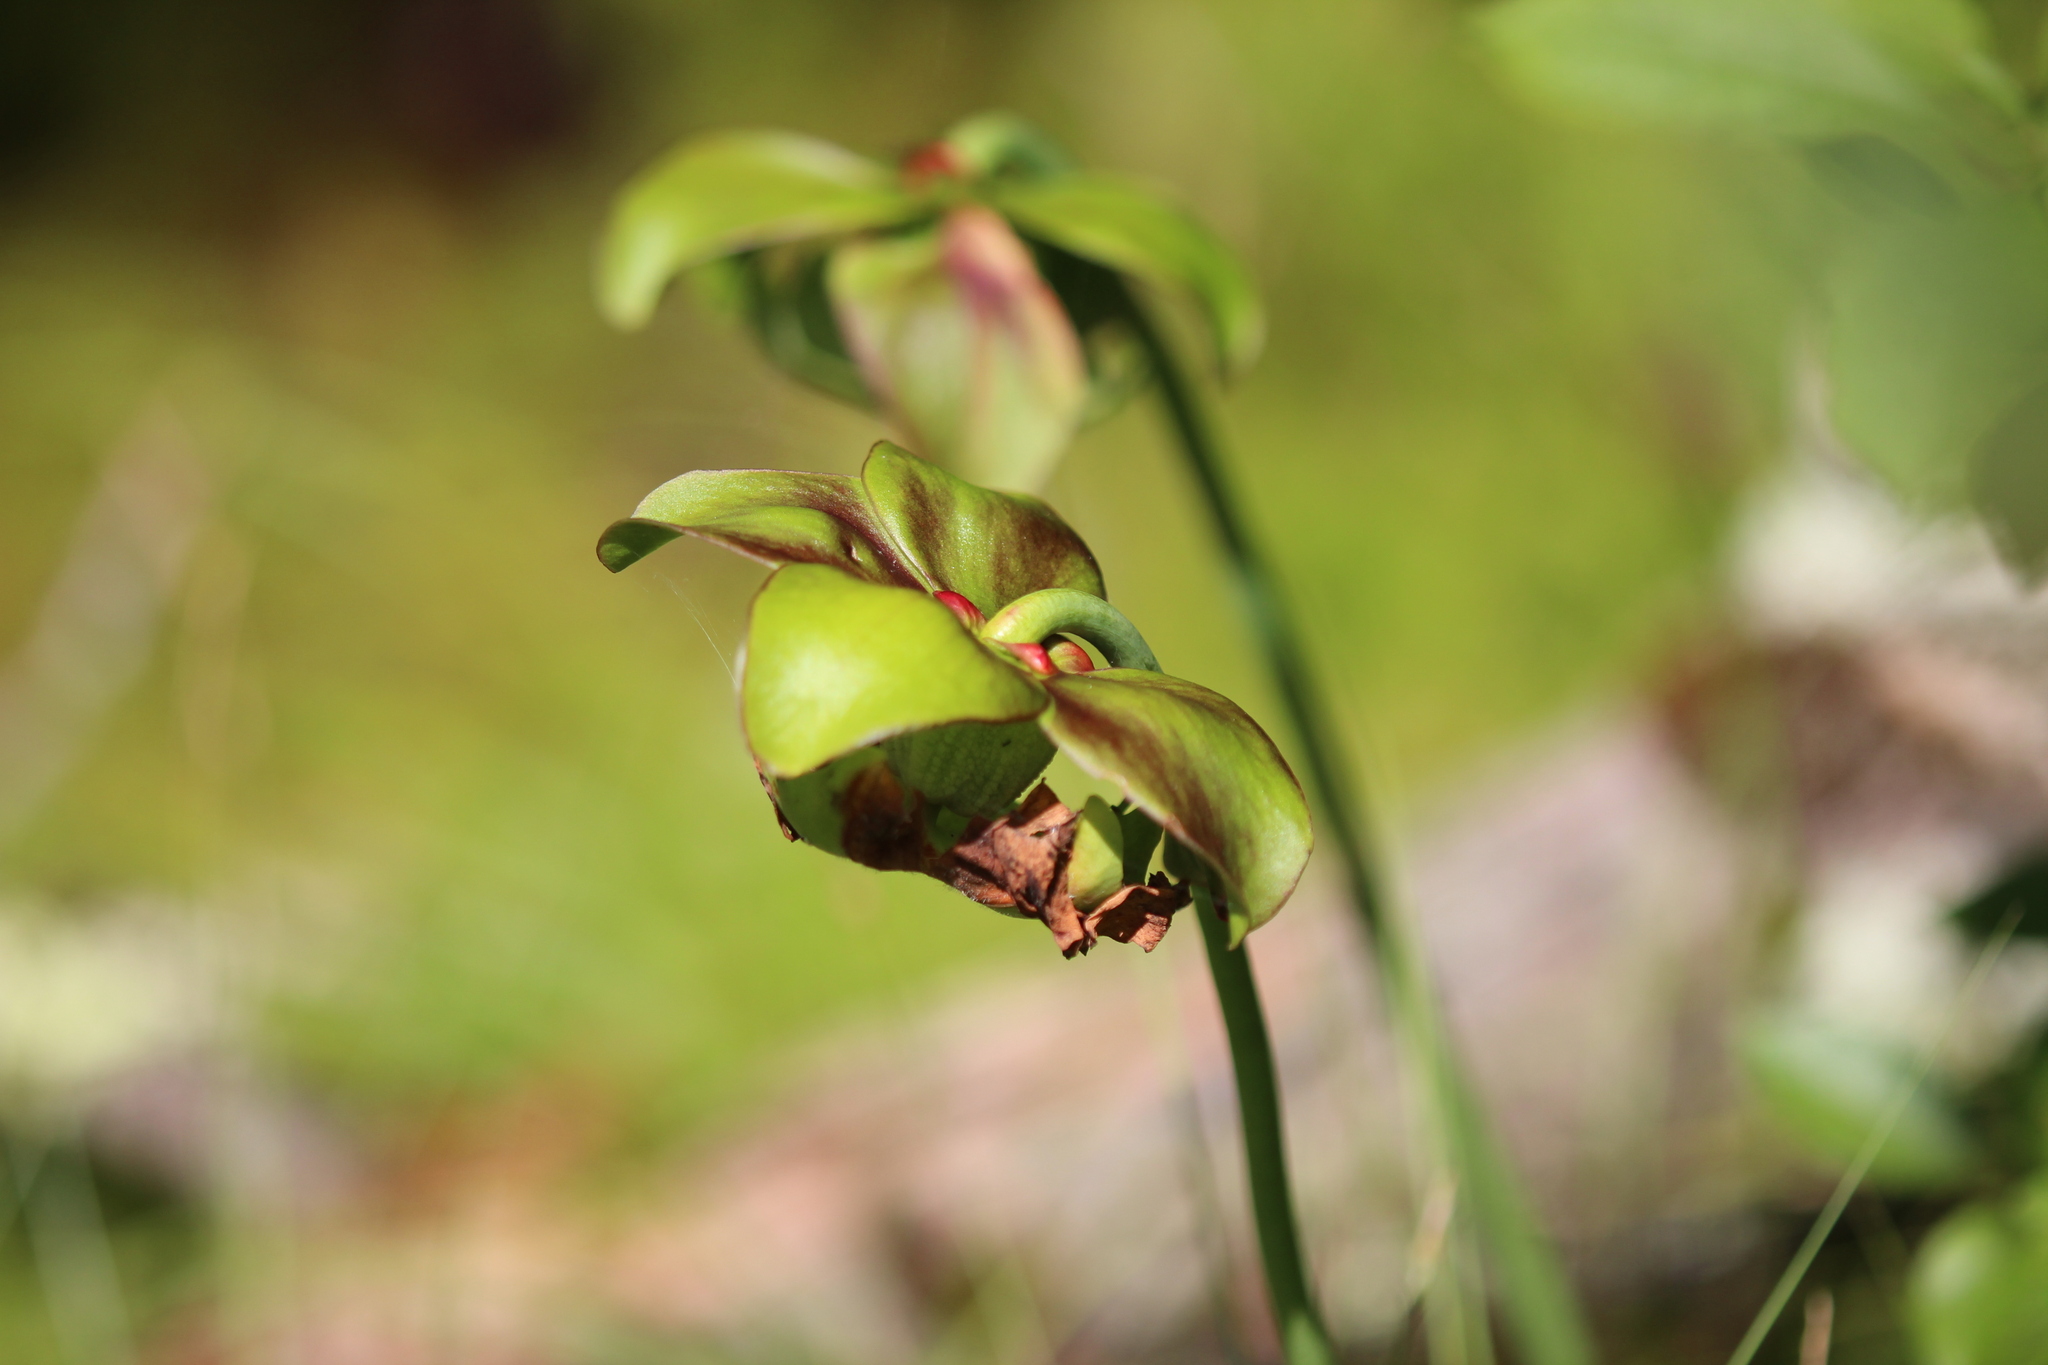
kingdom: Plantae
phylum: Tracheophyta
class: Magnoliopsida
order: Ericales
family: Sarraceniaceae
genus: Sarracenia
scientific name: Sarracenia purpurea
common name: Pitcherplant
